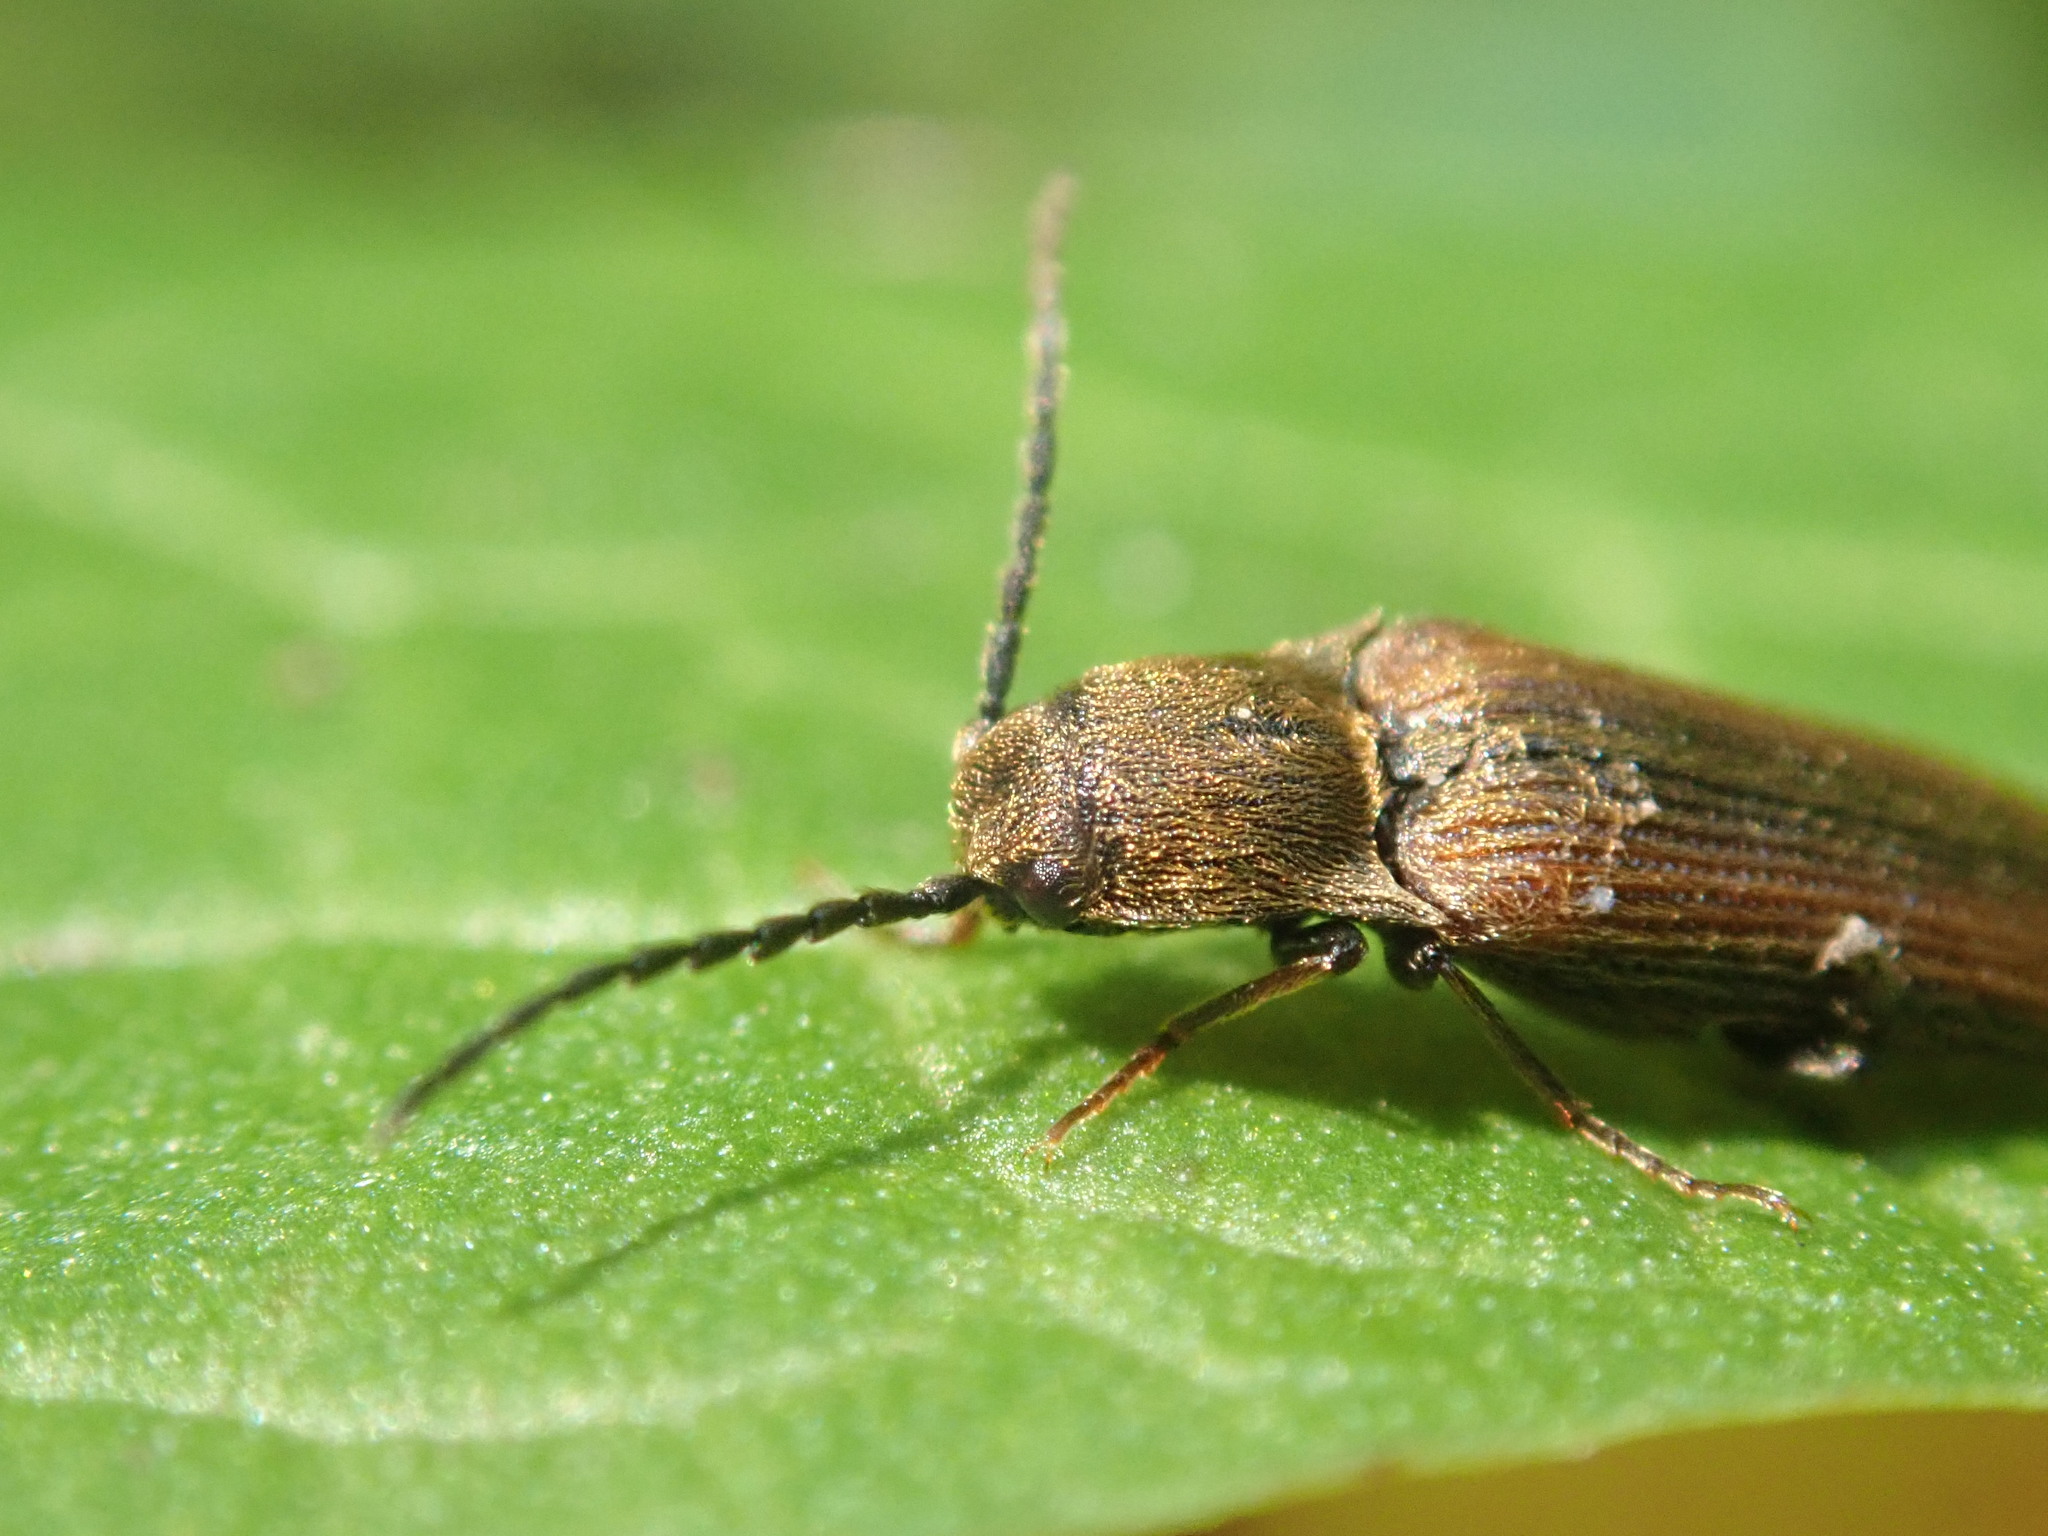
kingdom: Animalia
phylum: Arthropoda
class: Insecta
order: Coleoptera
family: Elateridae
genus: Campylomorphus
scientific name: Campylomorphus
